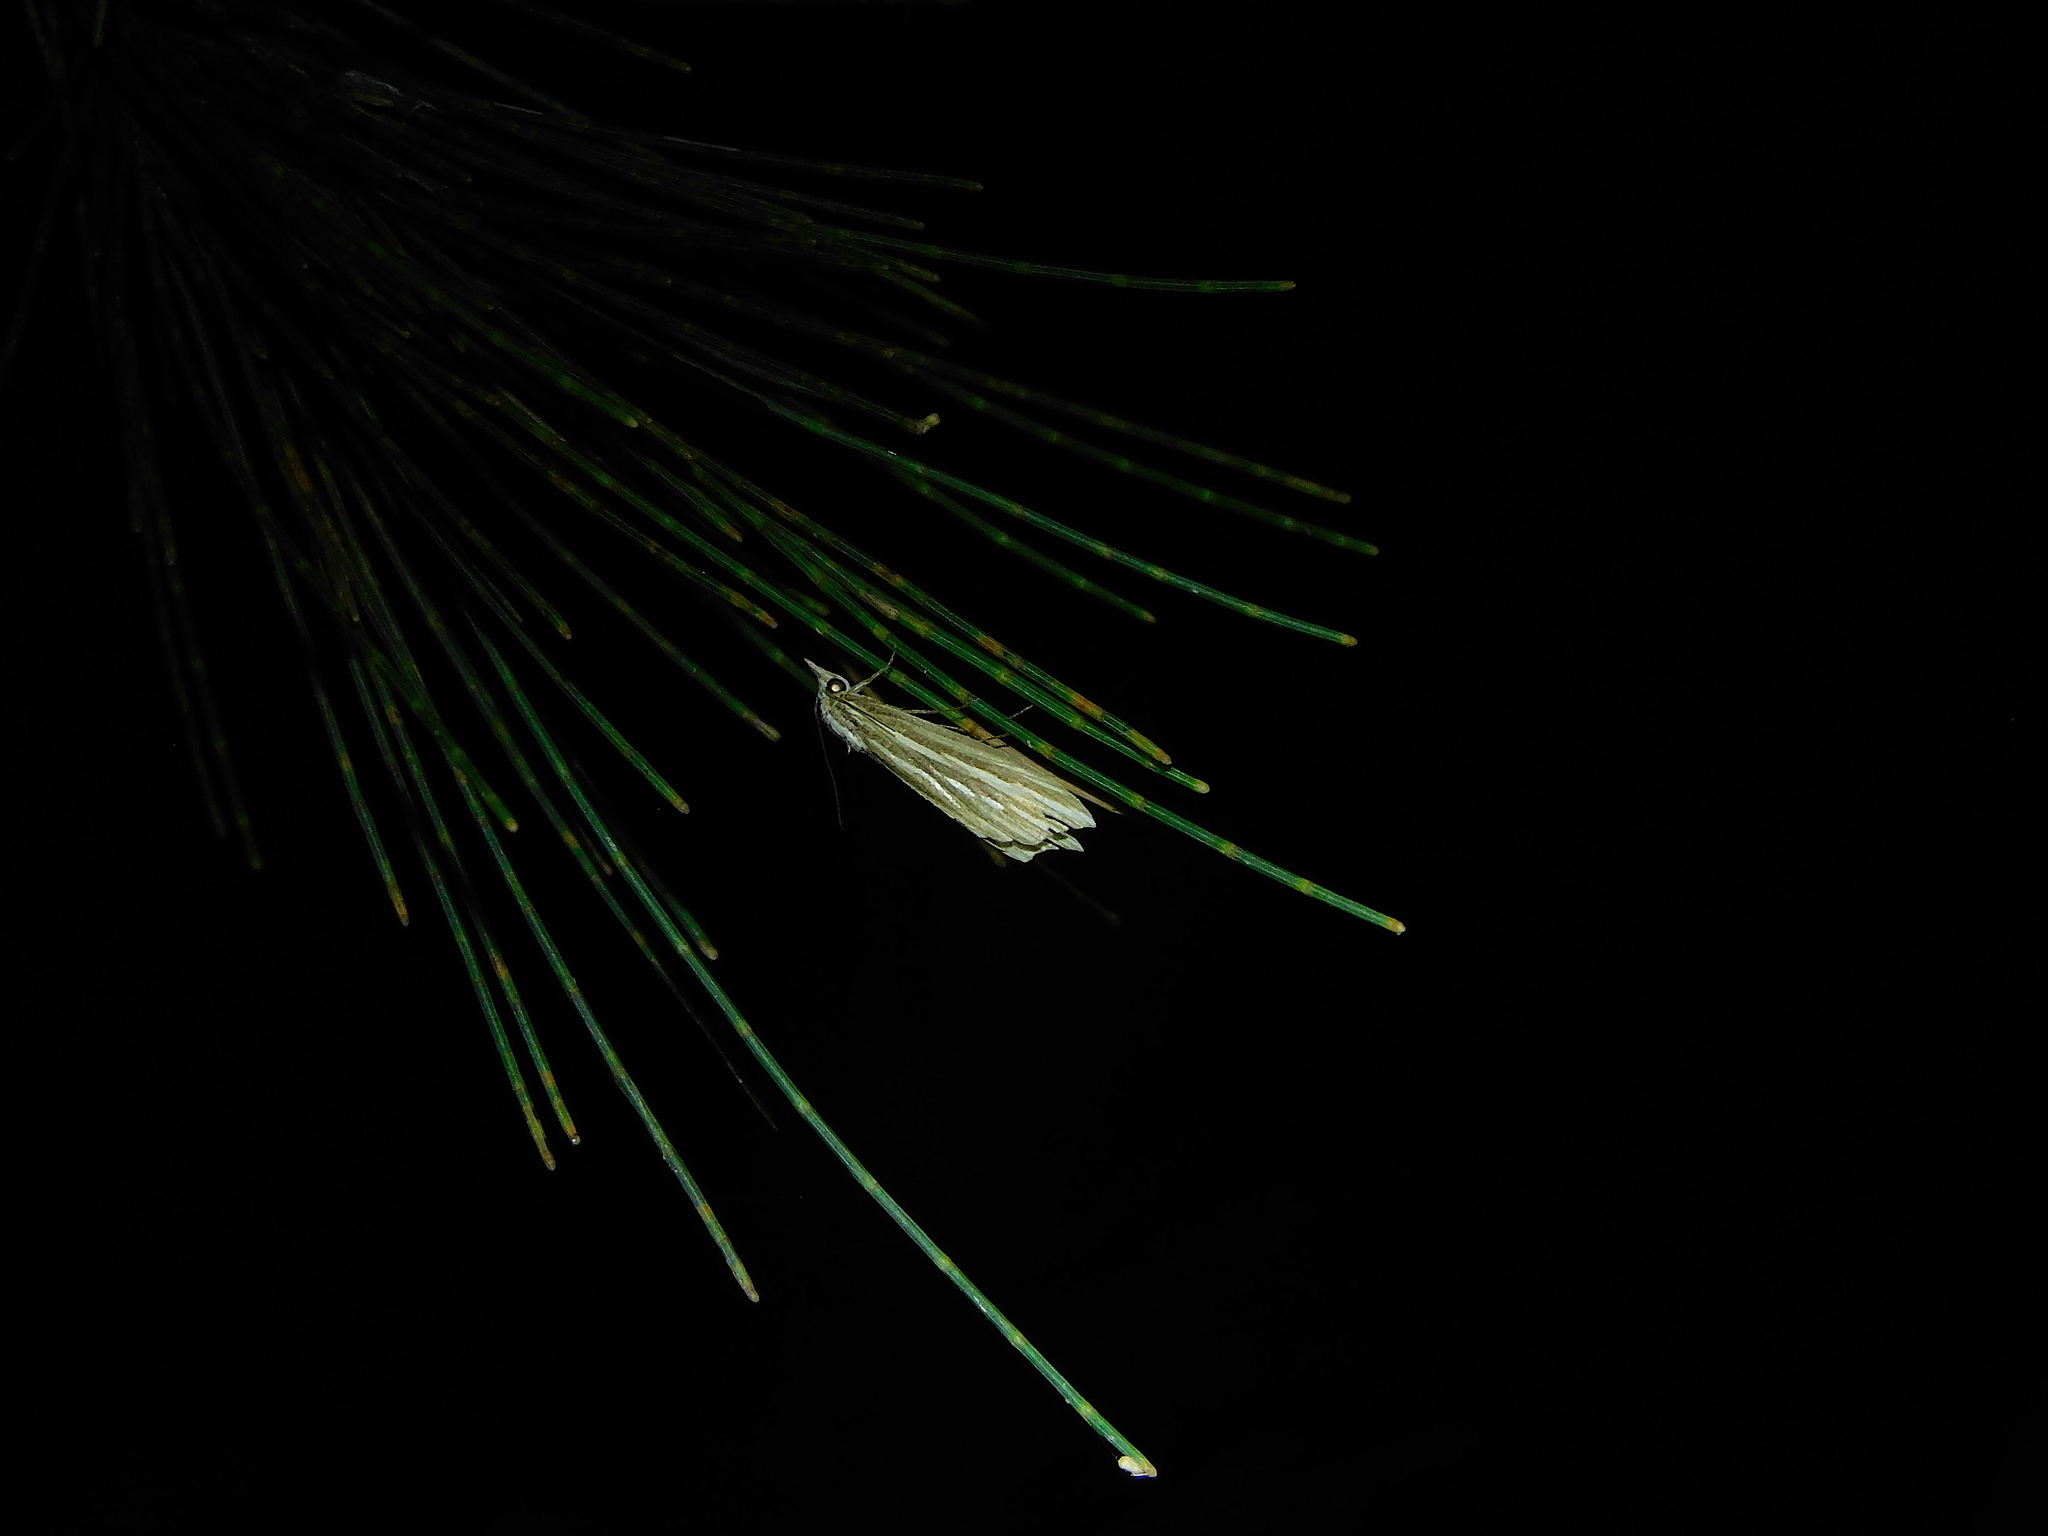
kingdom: Animalia
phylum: Arthropoda
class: Insecta
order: Lepidoptera
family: Erebidae
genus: Meyrickella
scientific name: Meyrickella ruptellus
